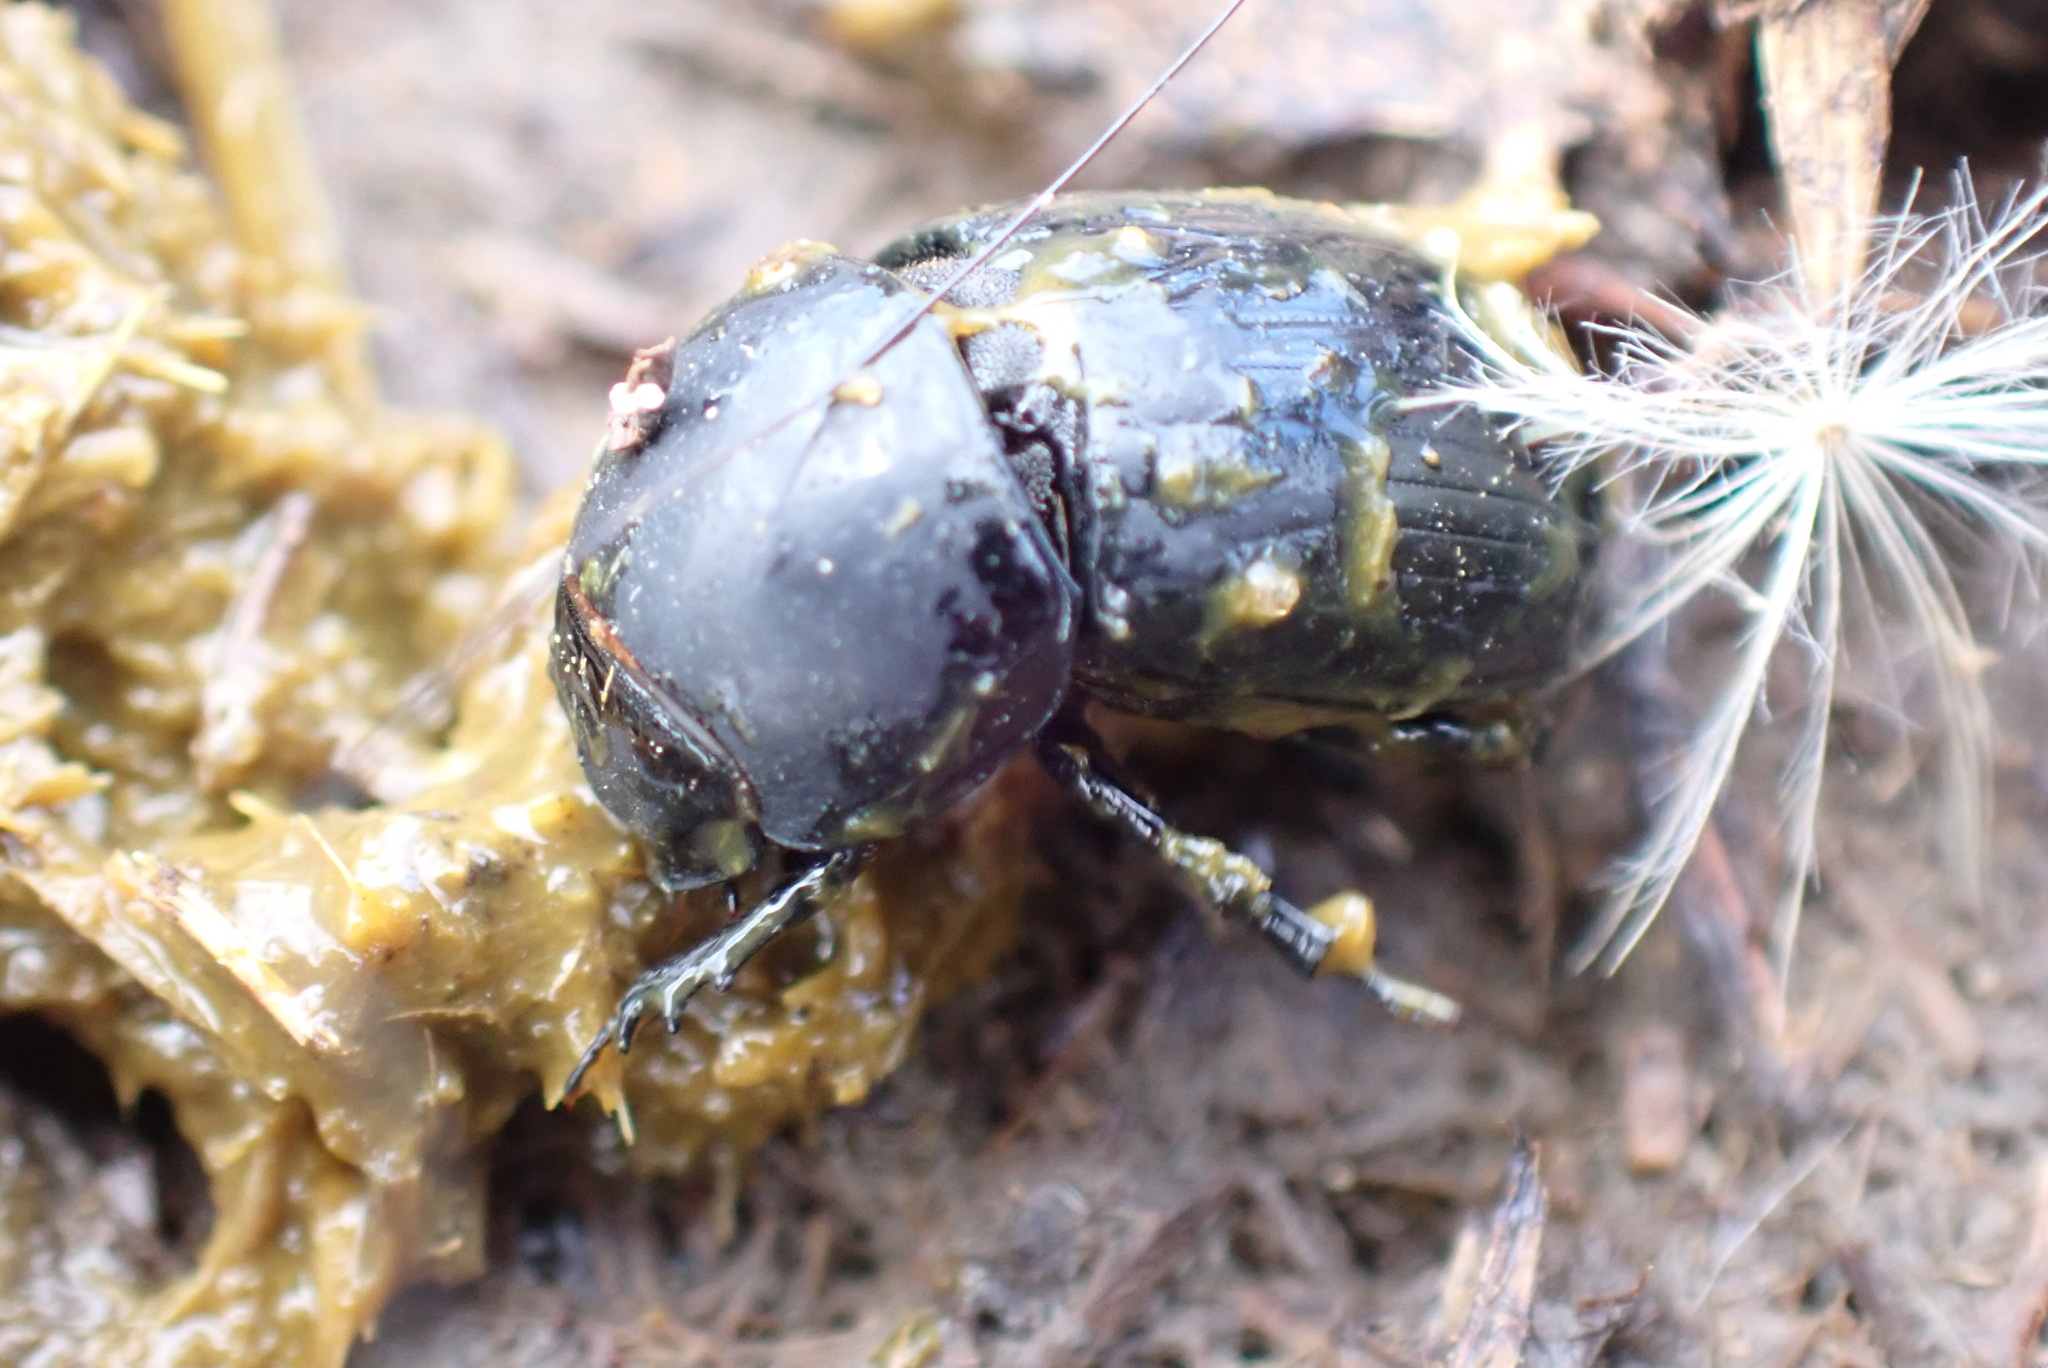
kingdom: Animalia
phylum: Arthropoda
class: Insecta
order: Coleoptera
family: Scarabaeidae
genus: Teuchestes
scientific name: Teuchestes fossor
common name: Digger small dung beetle
